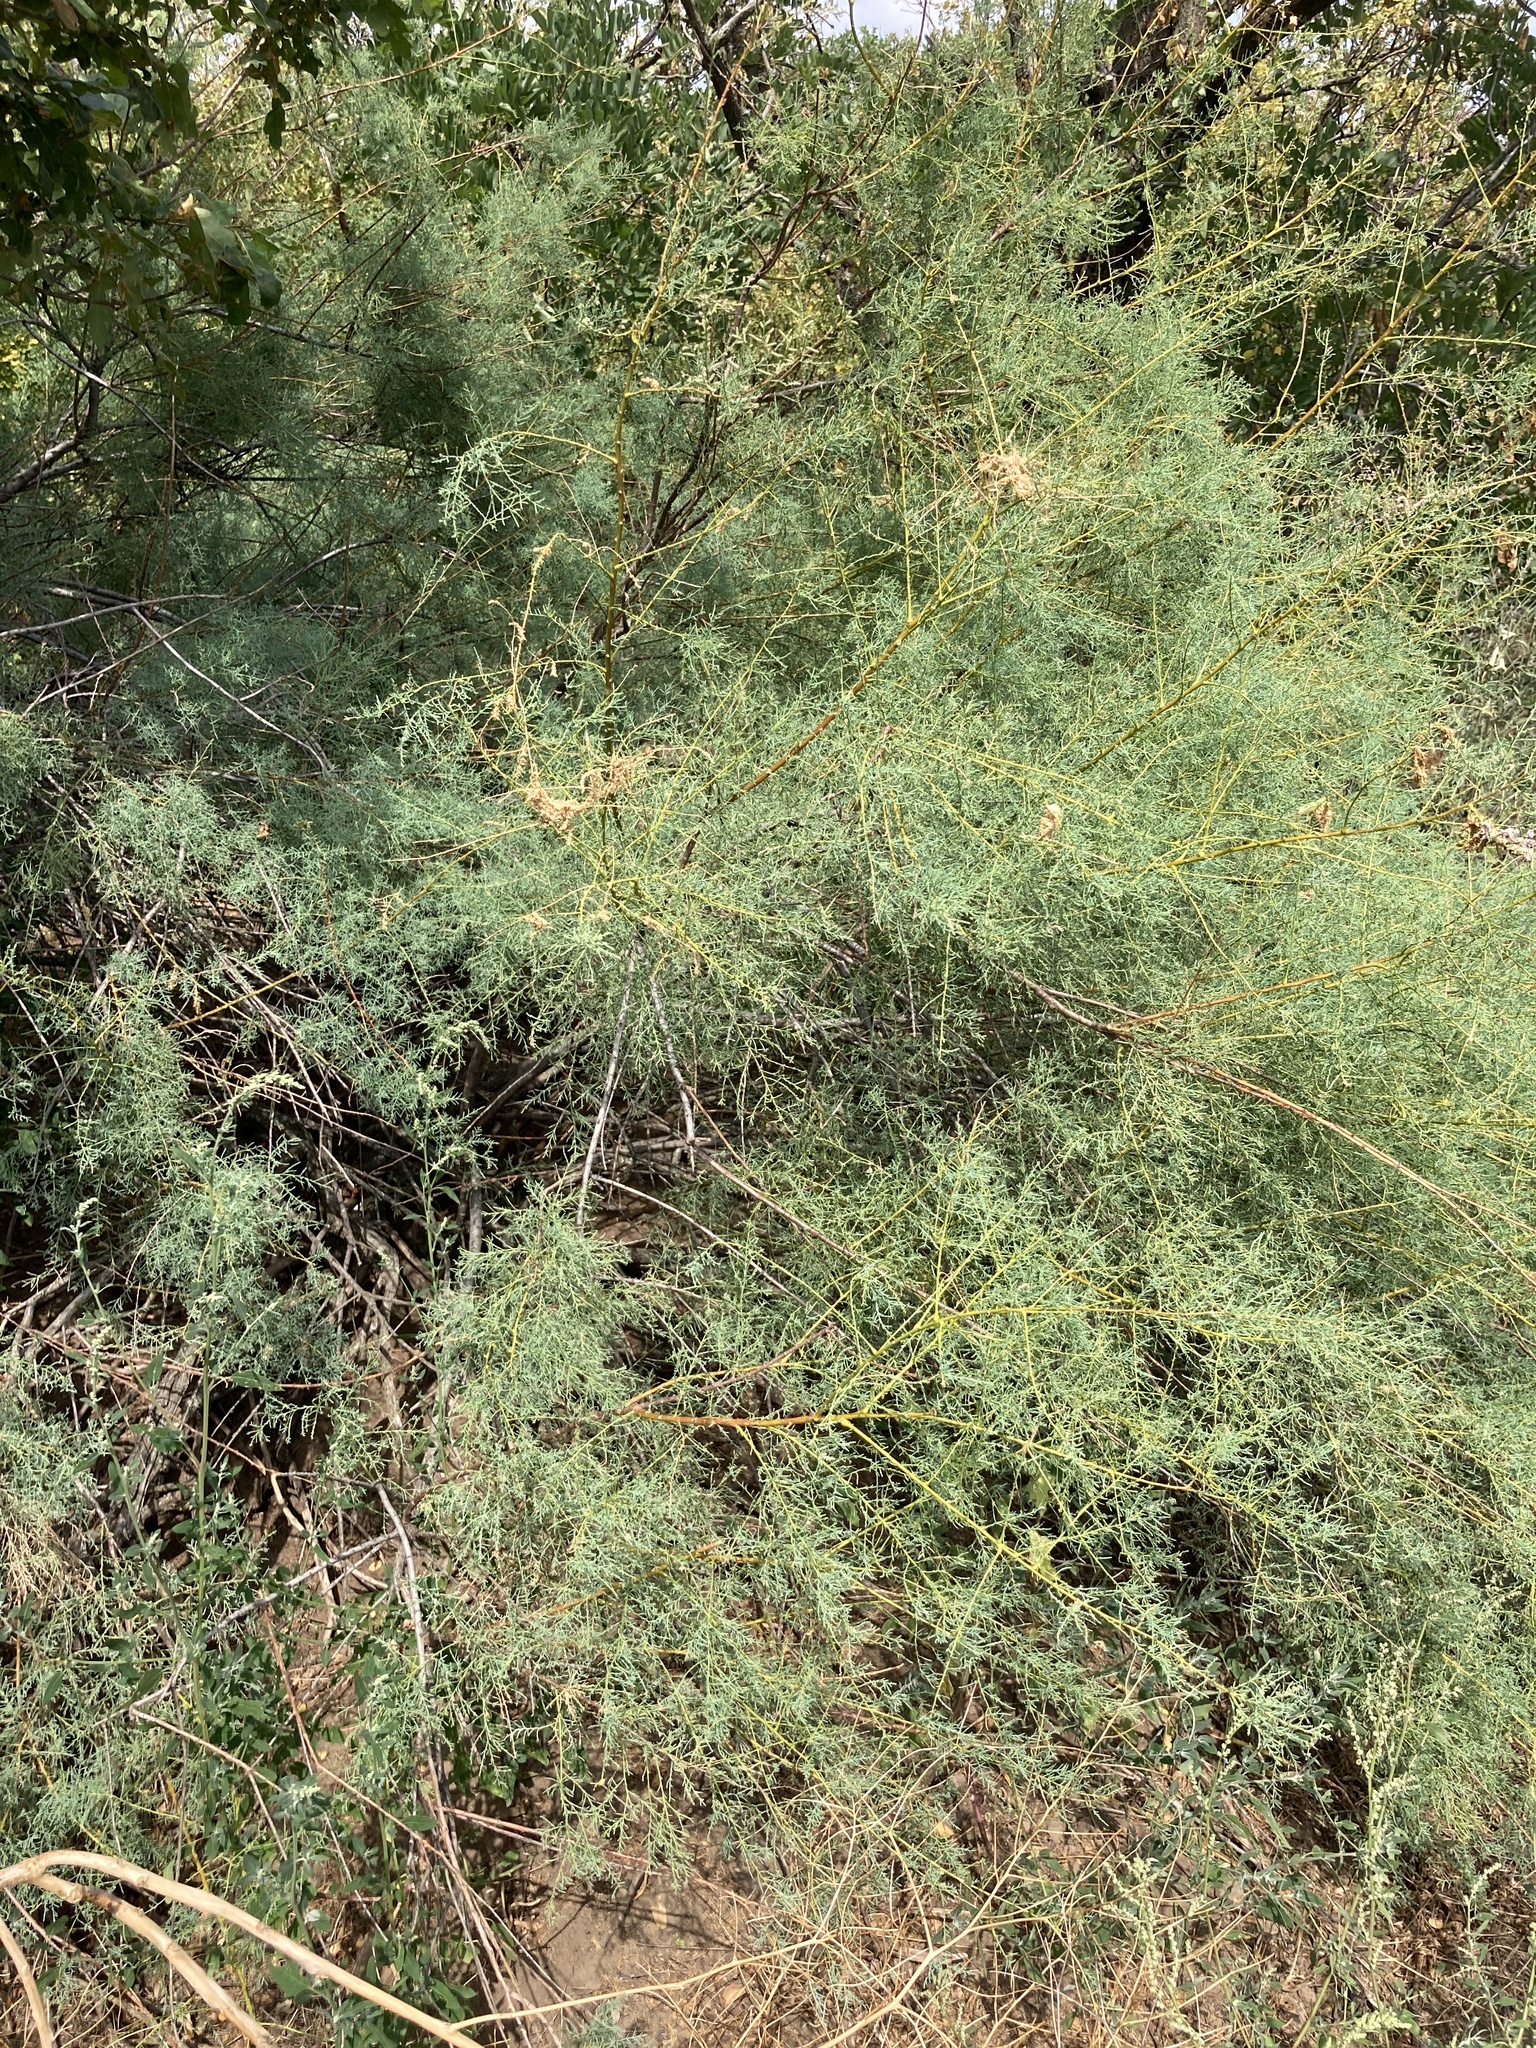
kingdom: Plantae
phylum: Tracheophyta
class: Magnoliopsida
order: Caryophyllales
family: Tamaricaceae
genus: Tamarix
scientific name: Tamarix ramosissima
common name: Pink tamarisk
